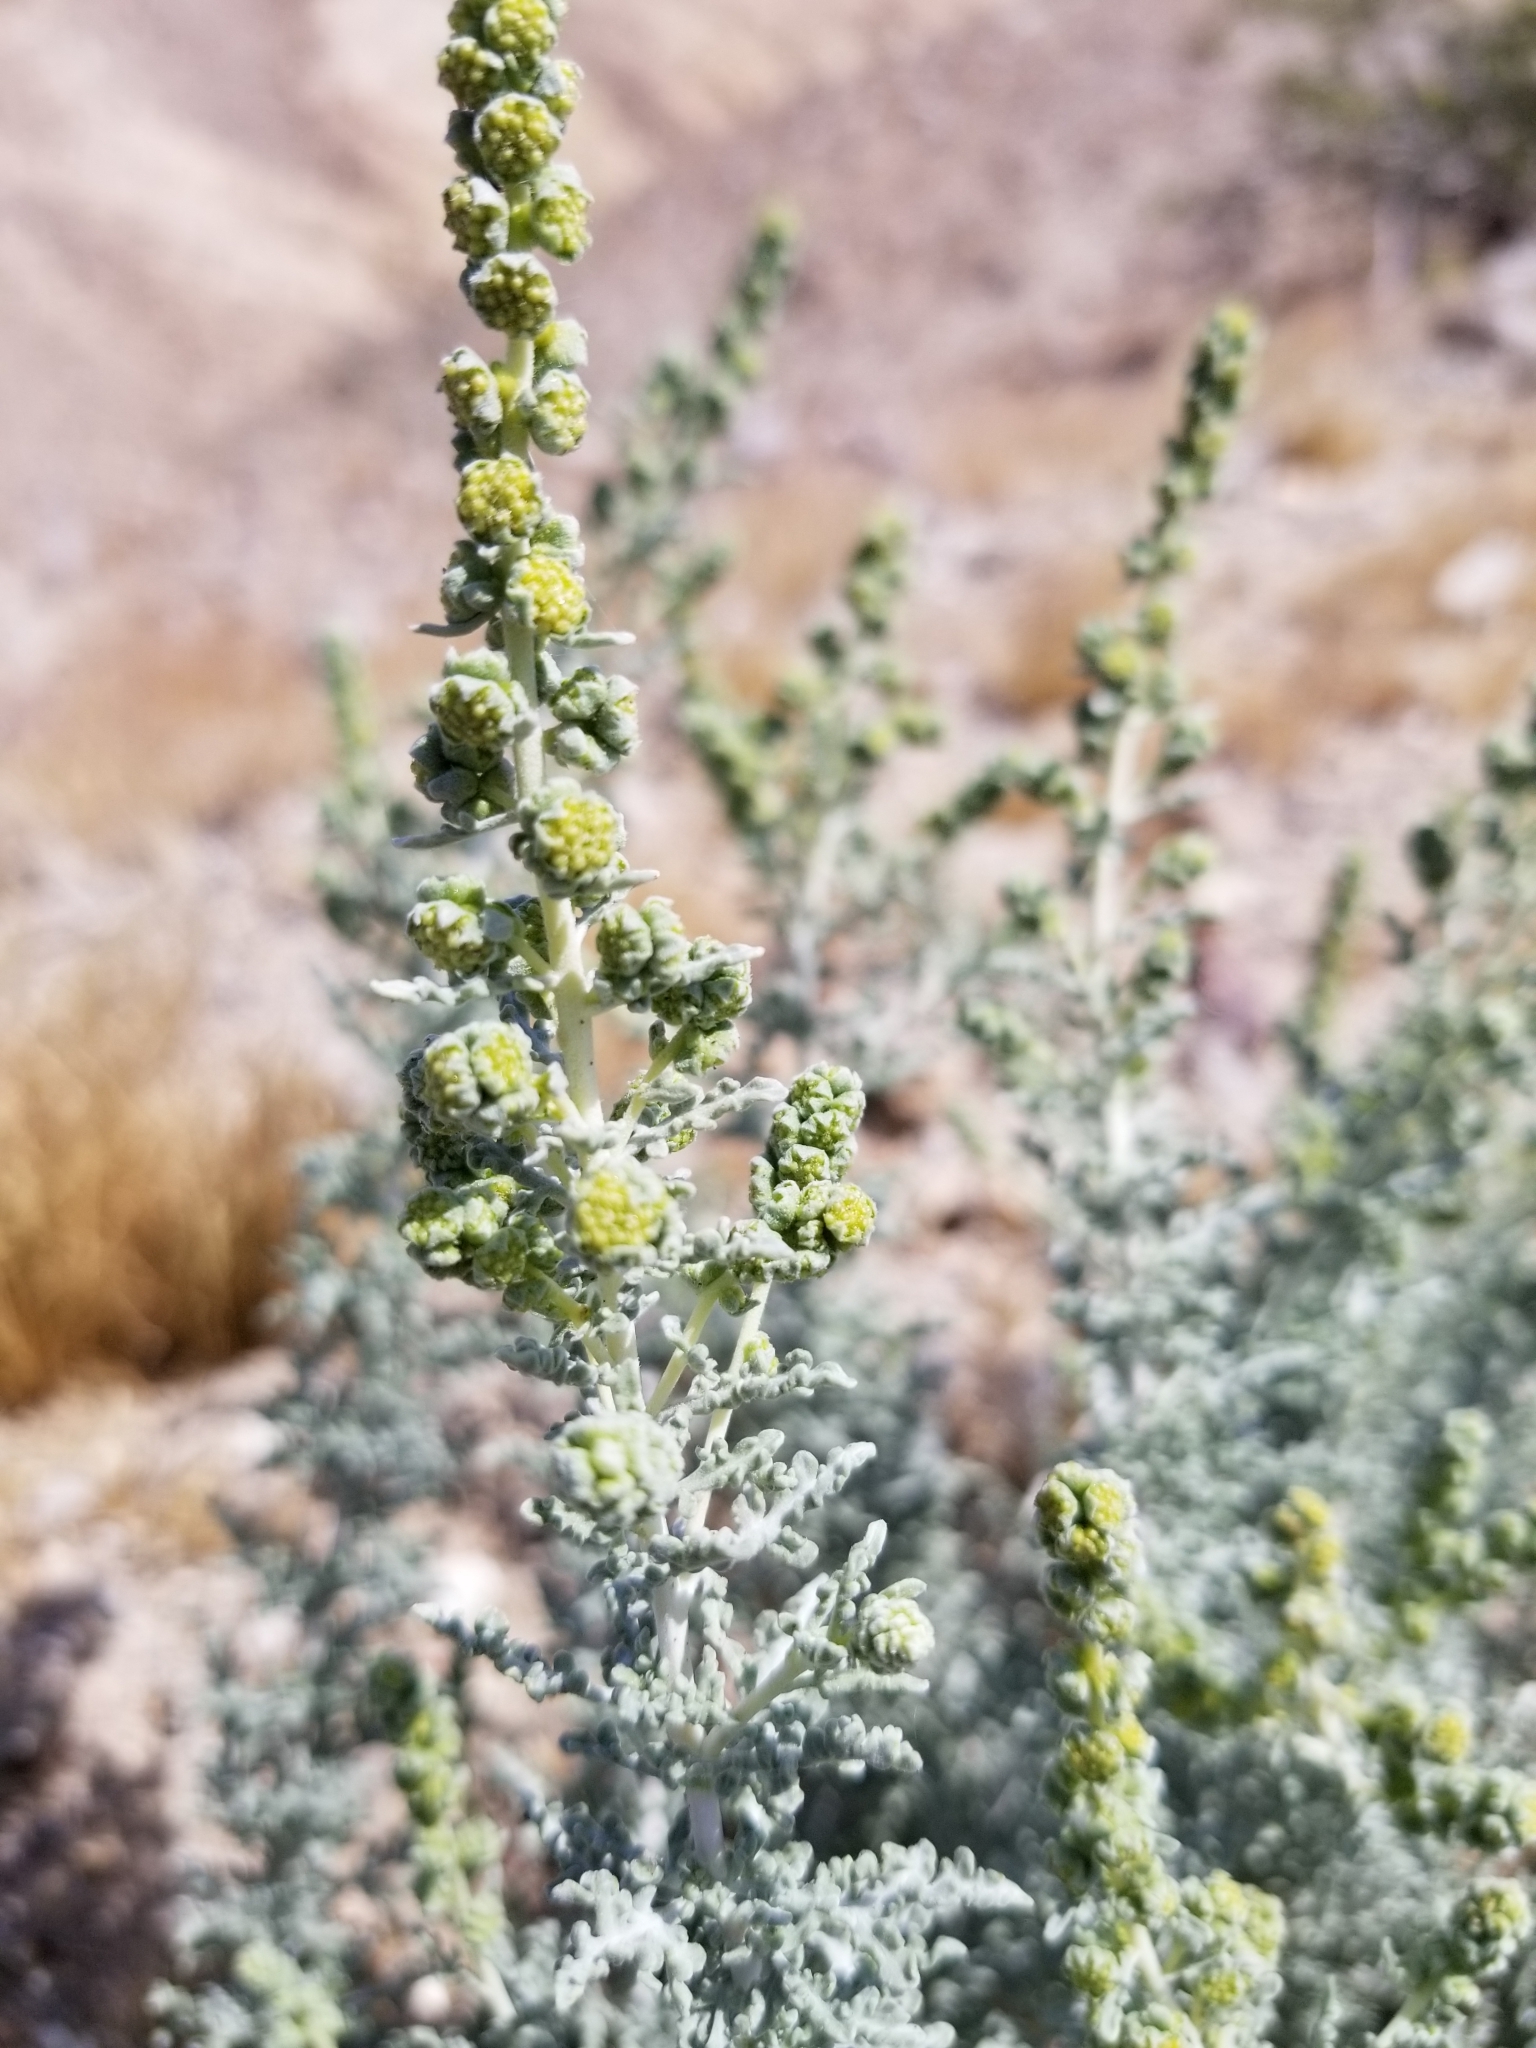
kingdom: Plantae
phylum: Tracheophyta
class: Magnoliopsida
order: Asterales
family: Asteraceae
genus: Ambrosia
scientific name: Ambrosia dumosa
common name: Bur-sage
